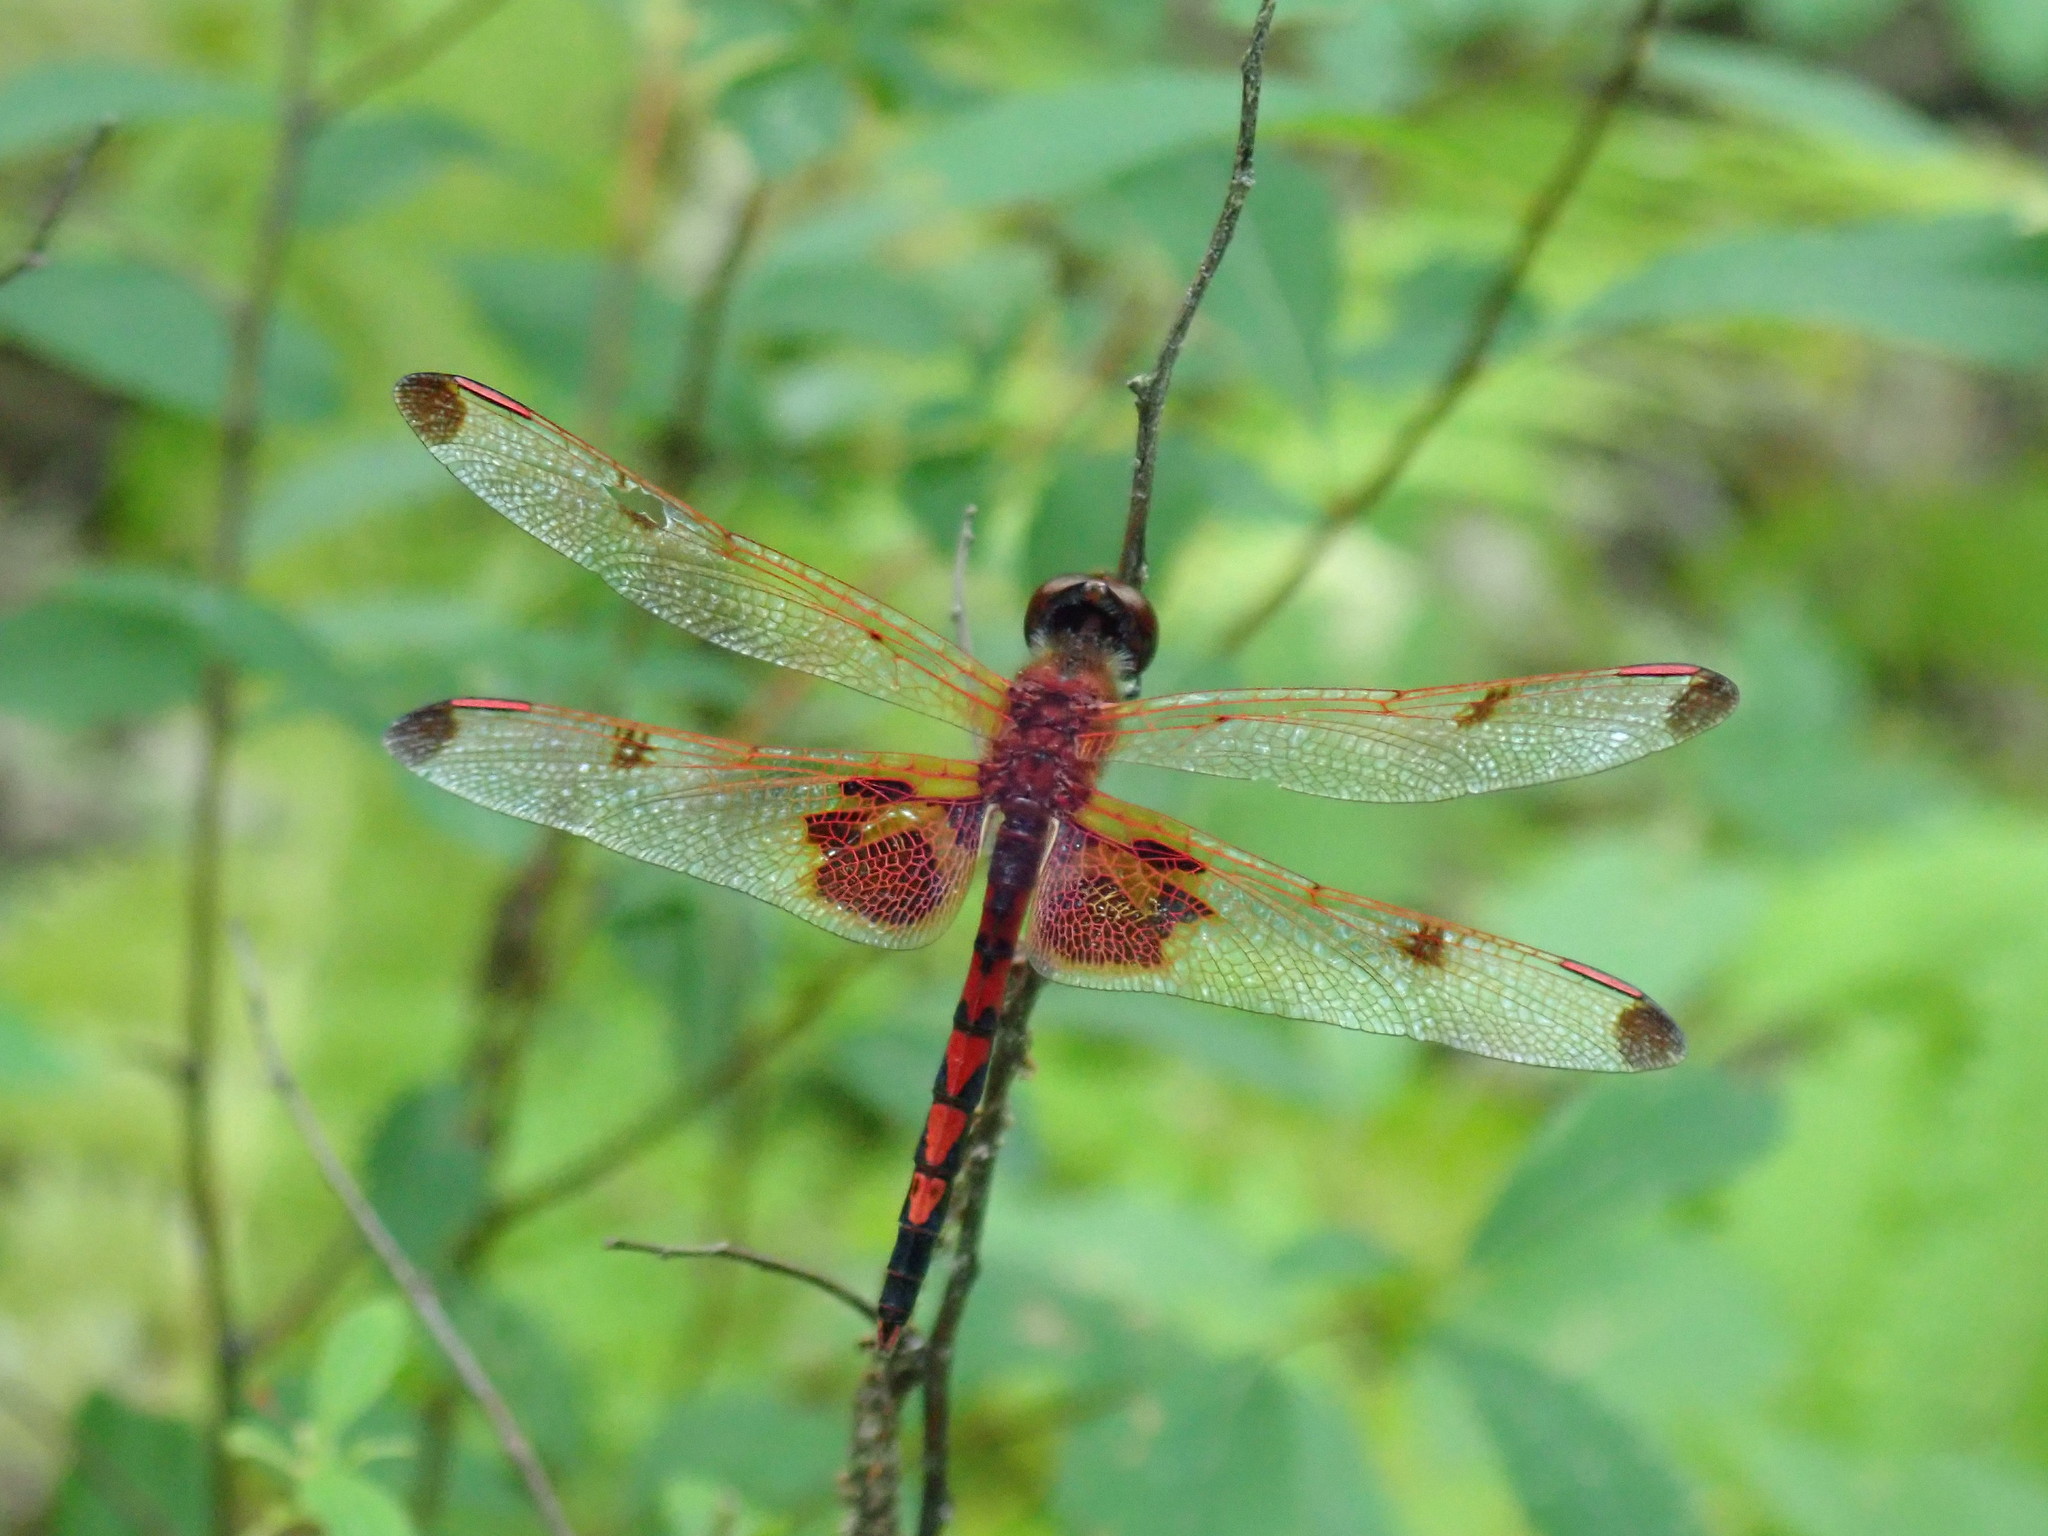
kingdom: Animalia
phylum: Arthropoda
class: Insecta
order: Odonata
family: Libellulidae
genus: Celithemis
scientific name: Celithemis elisa
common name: Calico pennant
